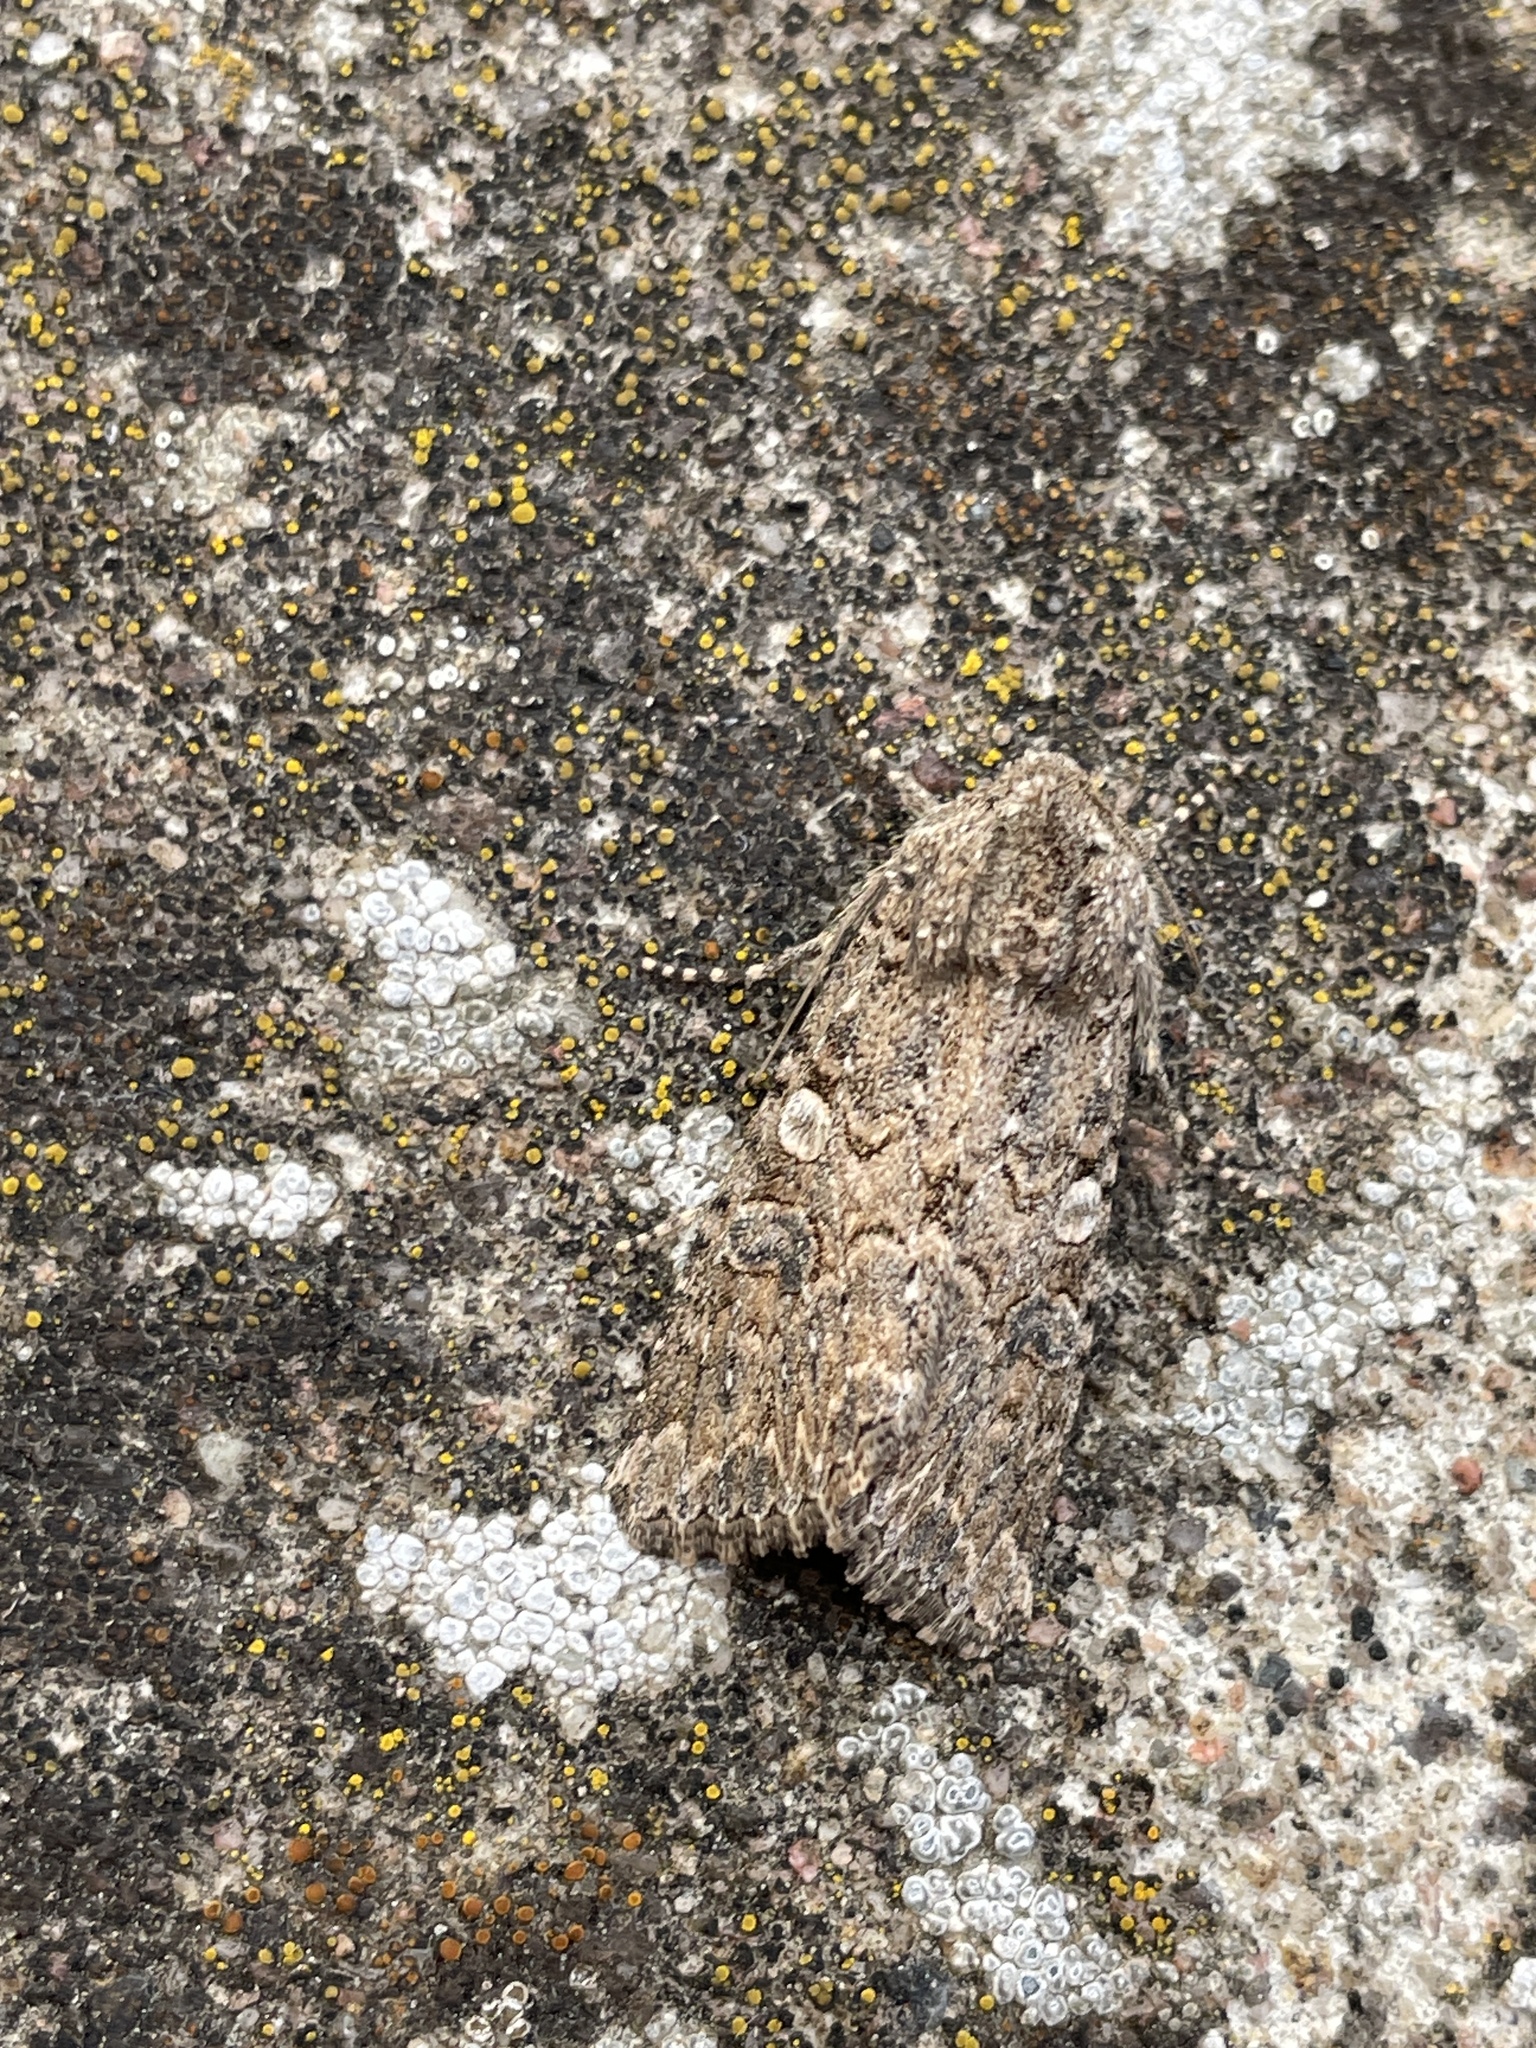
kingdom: Animalia
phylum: Arthropoda
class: Insecta
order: Lepidoptera
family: Noctuidae
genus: Anarta
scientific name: Anarta trifolii
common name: Clover cutworm moth
